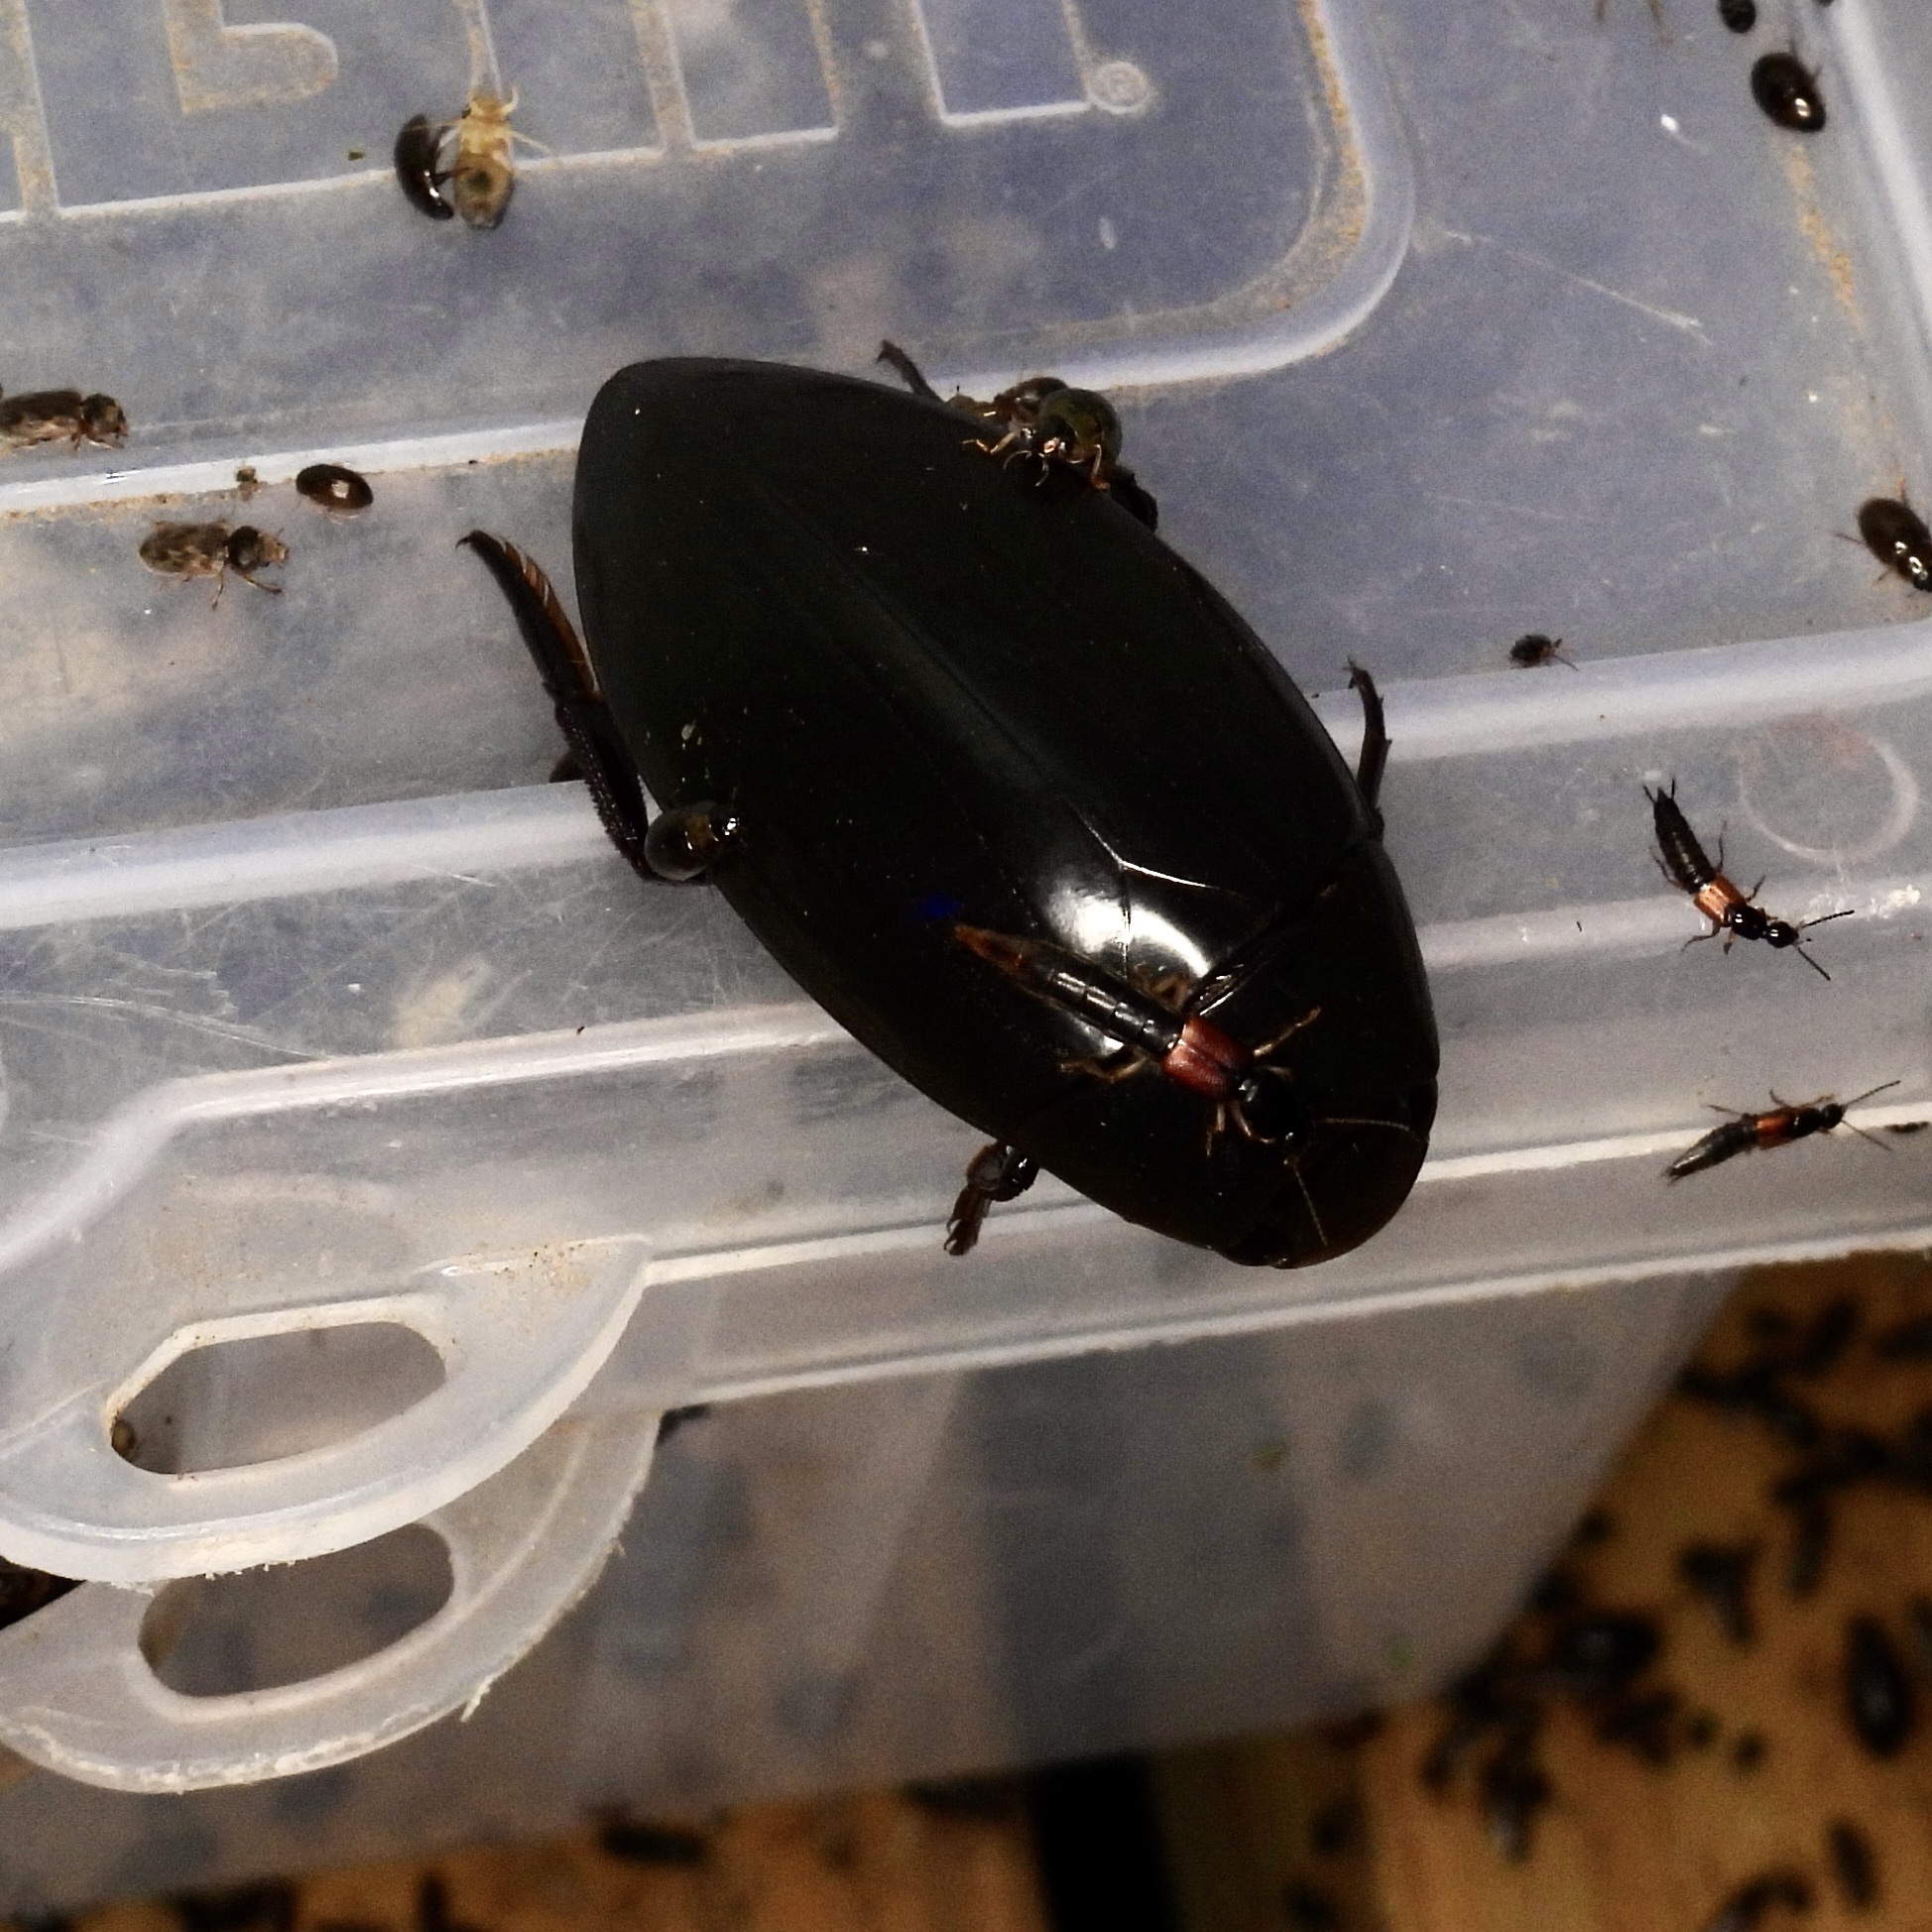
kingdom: Animalia
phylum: Arthropoda
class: Insecta
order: Coleoptera
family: Hydrophilidae
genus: Hydrophilus
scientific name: Hydrophilus triangularis
